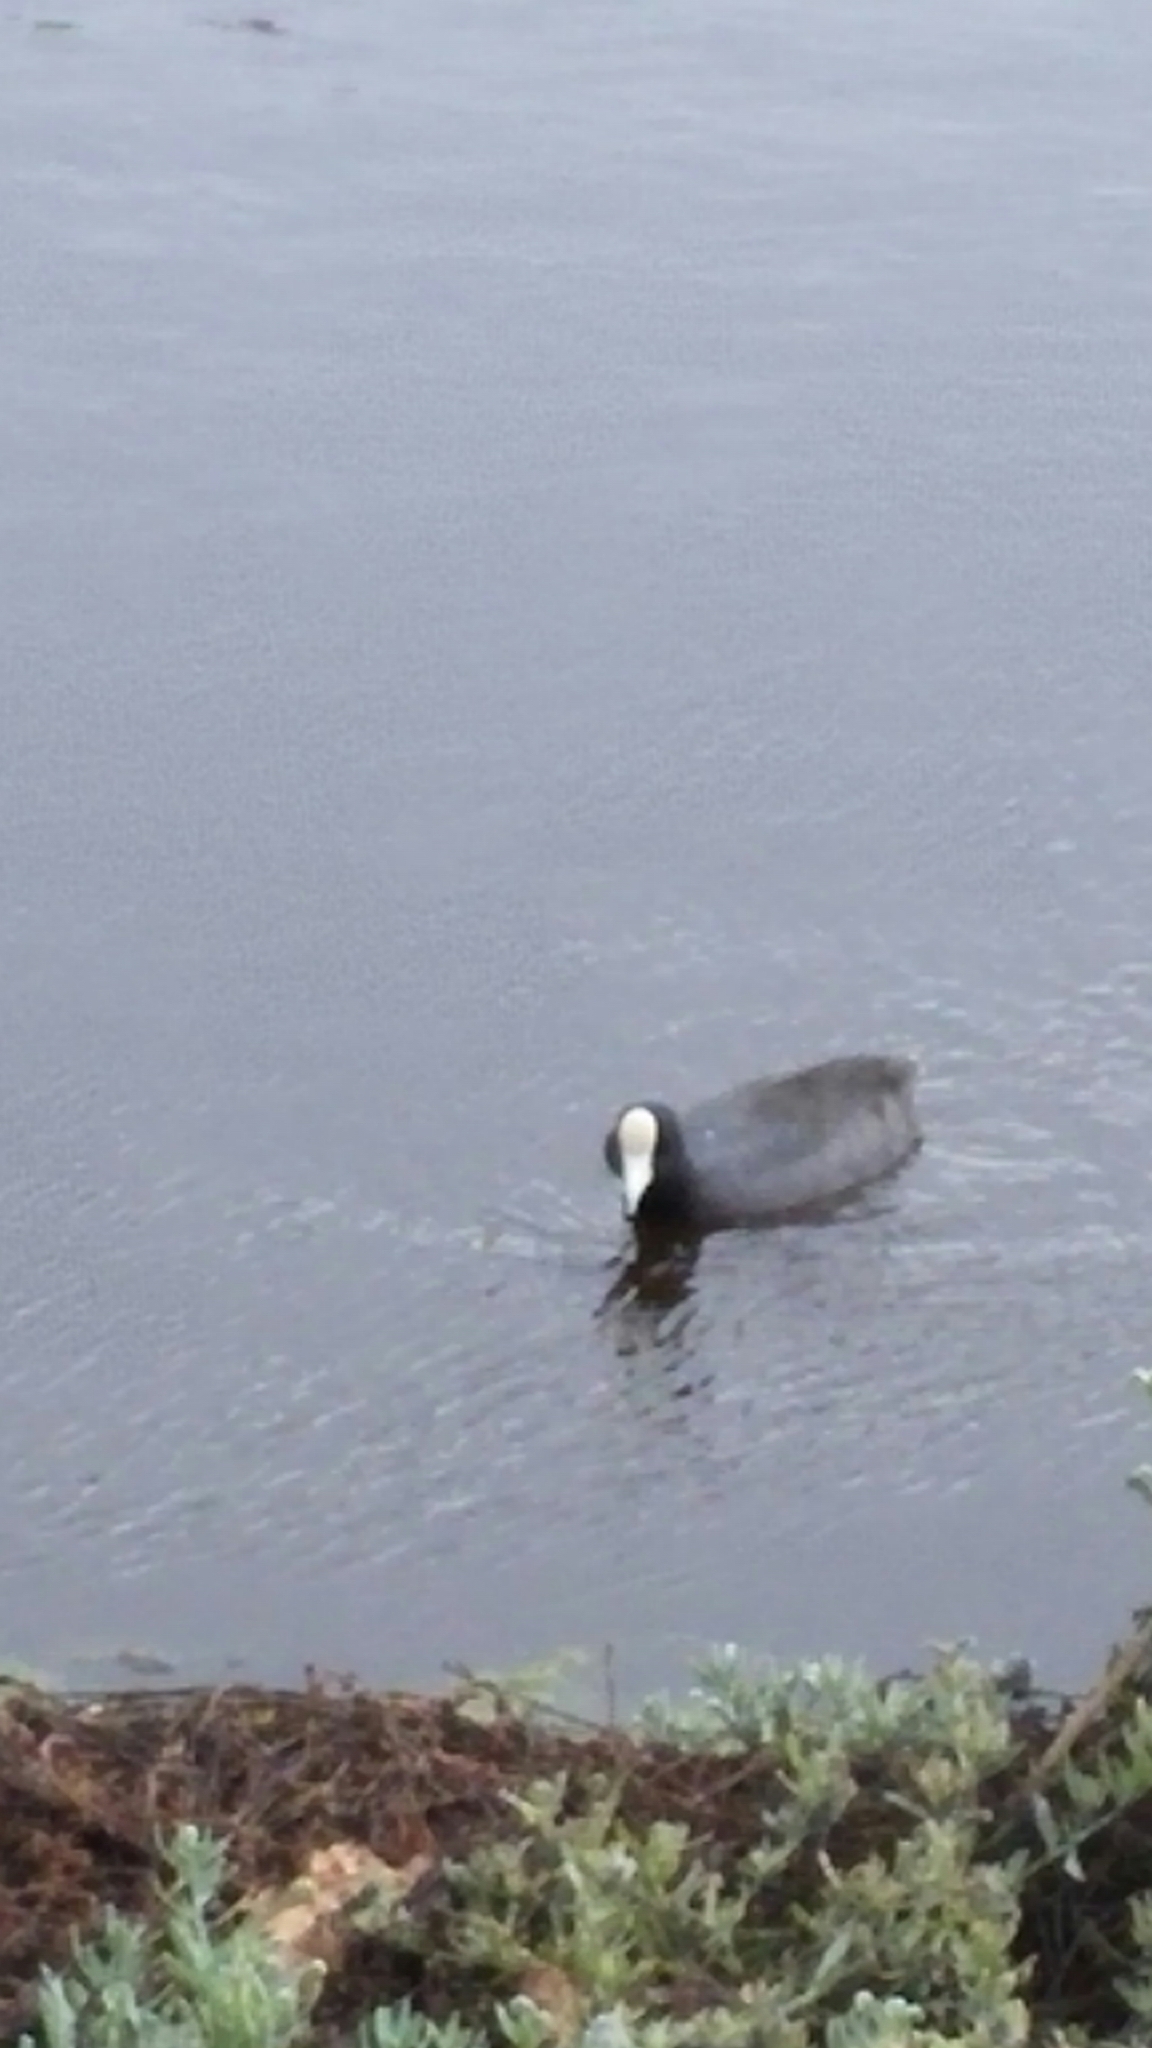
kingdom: Animalia
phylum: Chordata
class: Aves
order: Gruiformes
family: Rallidae
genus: Fulica
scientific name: Fulica alai
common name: Hawaiian coot
